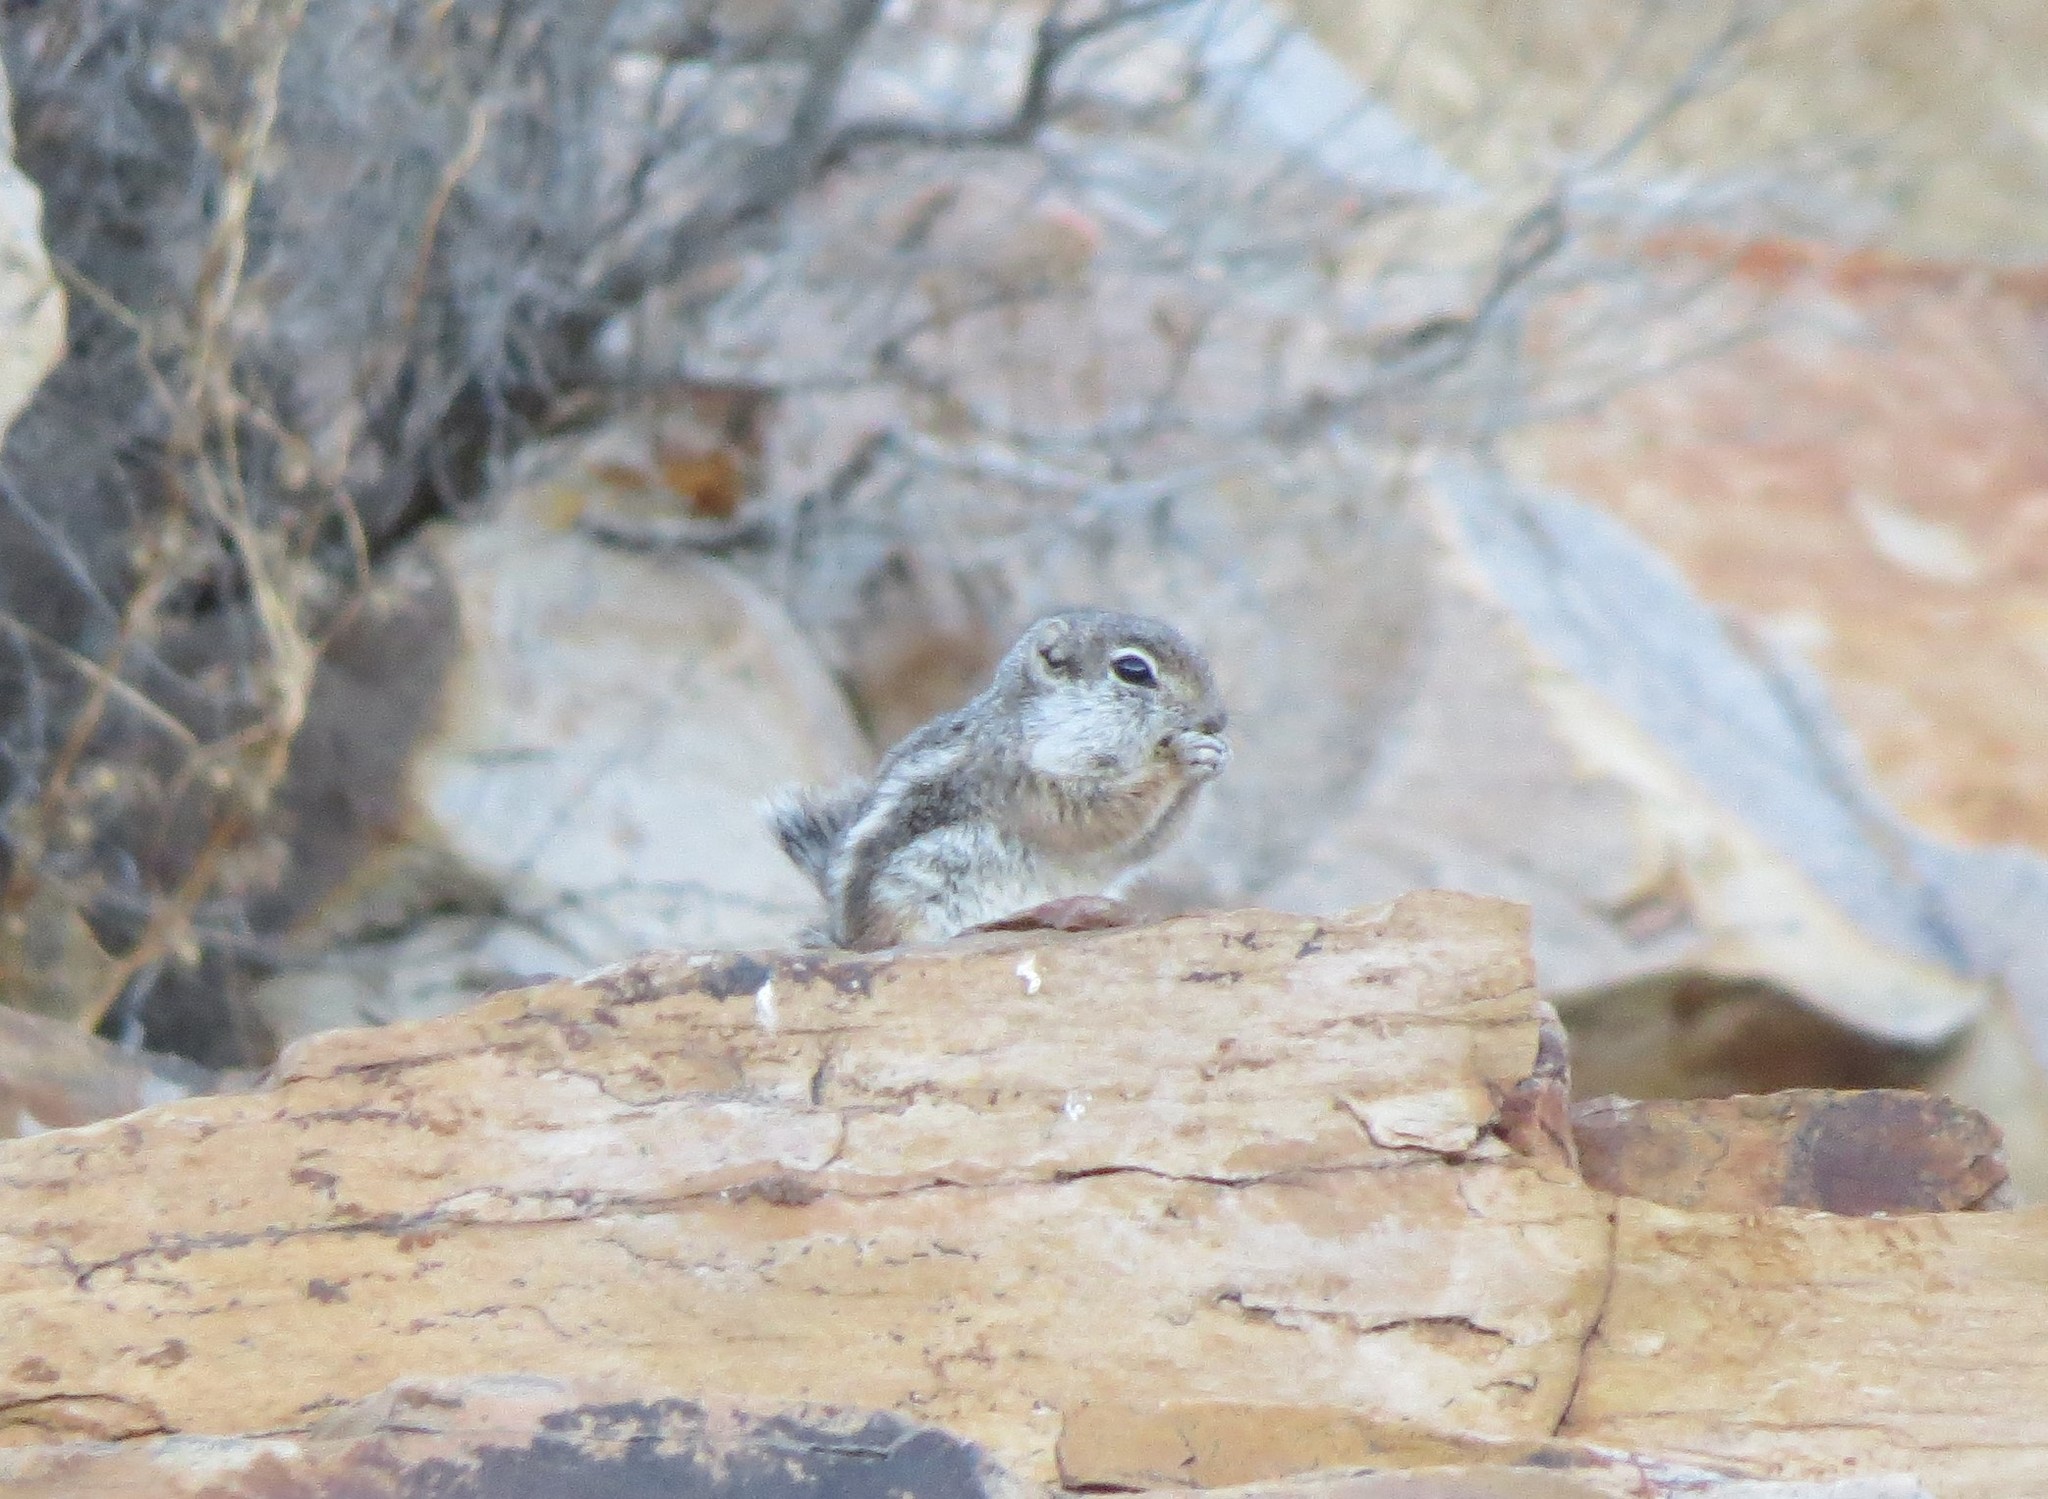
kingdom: Animalia
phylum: Chordata
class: Mammalia
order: Rodentia
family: Sciuridae
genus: Ammospermophilus
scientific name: Ammospermophilus interpres
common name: Texas antelope squirrel
